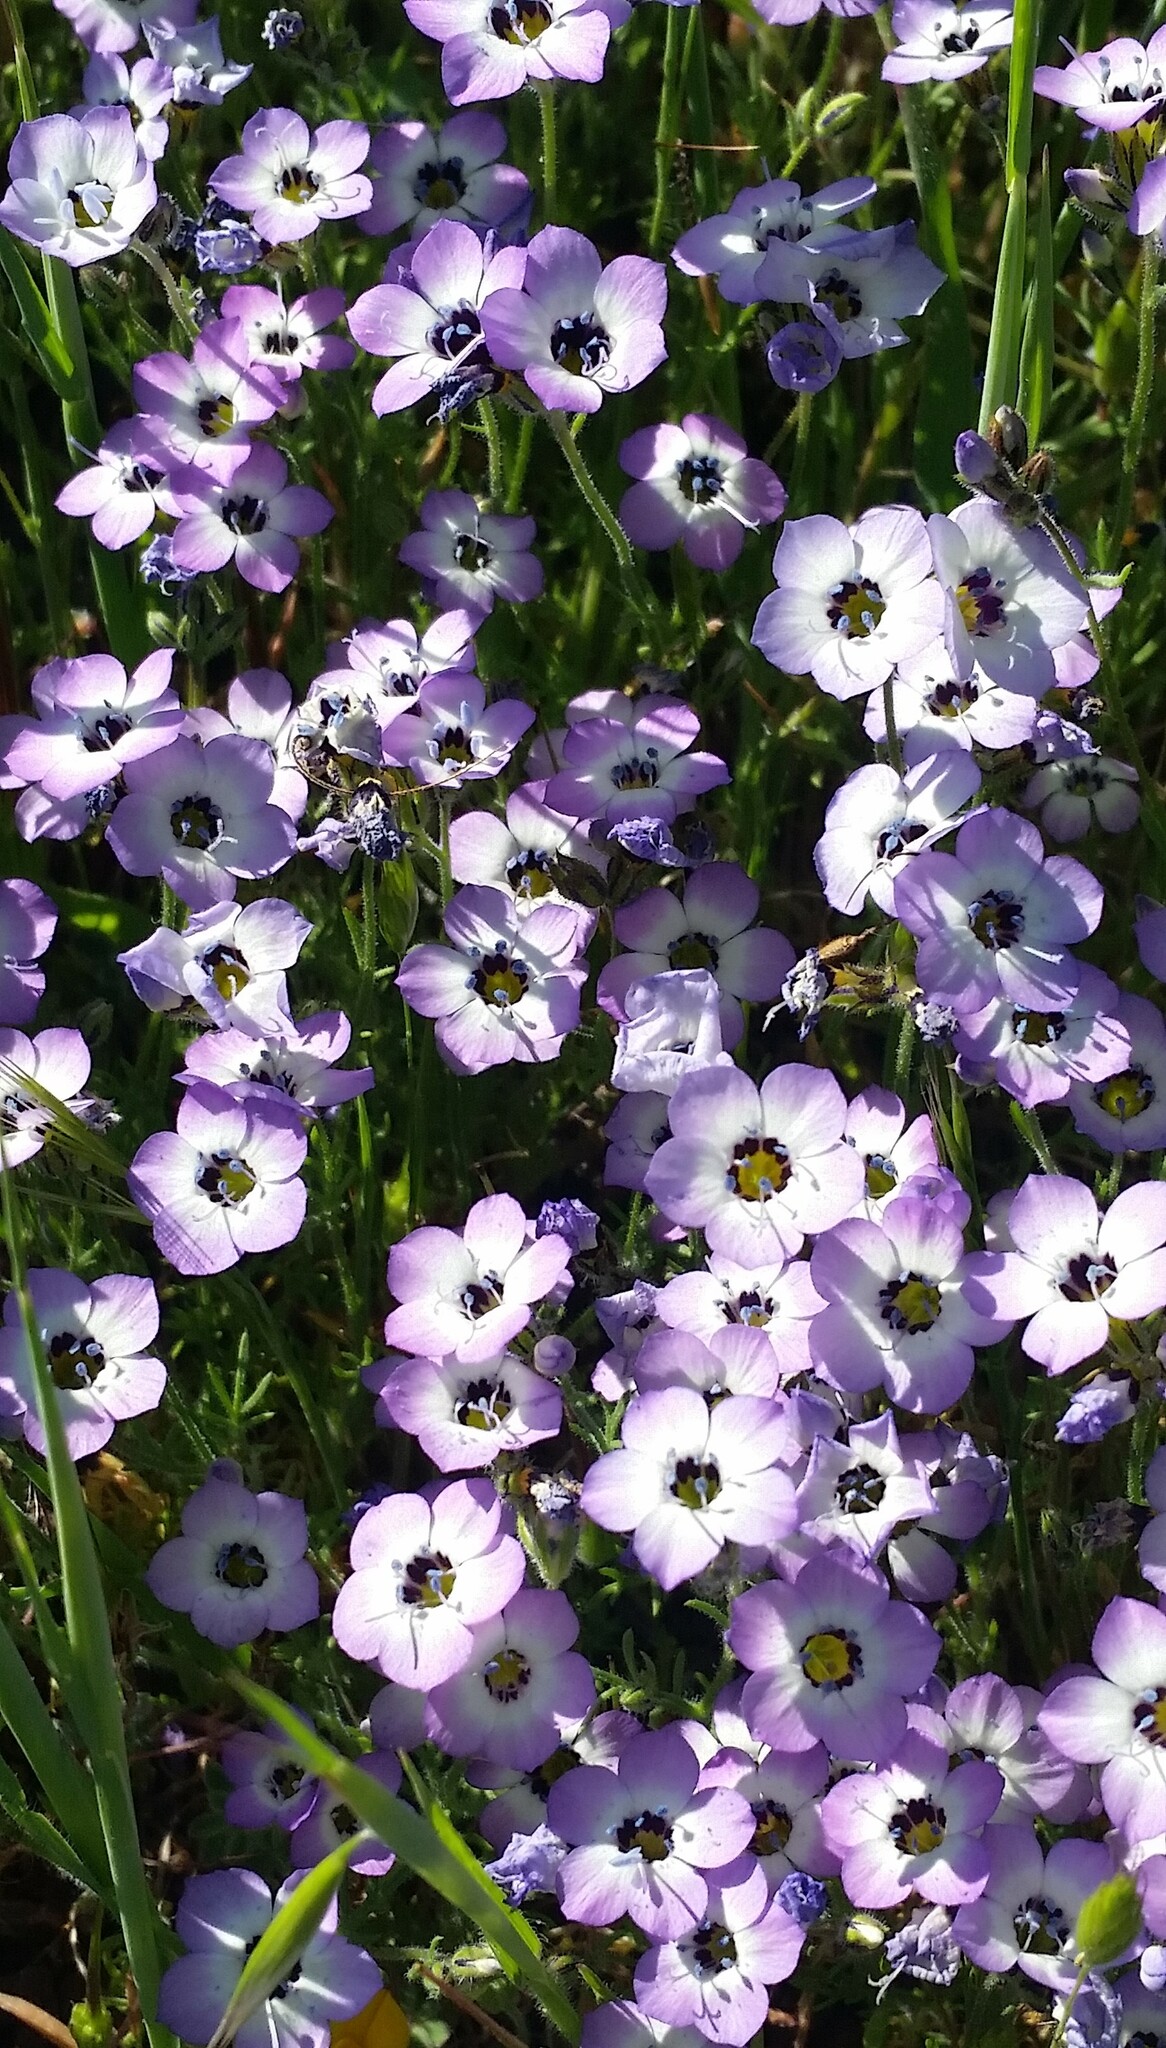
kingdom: Plantae
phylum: Tracheophyta
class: Magnoliopsida
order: Ericales
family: Polemoniaceae
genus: Gilia
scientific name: Gilia tricolor
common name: Bird's-eyes
